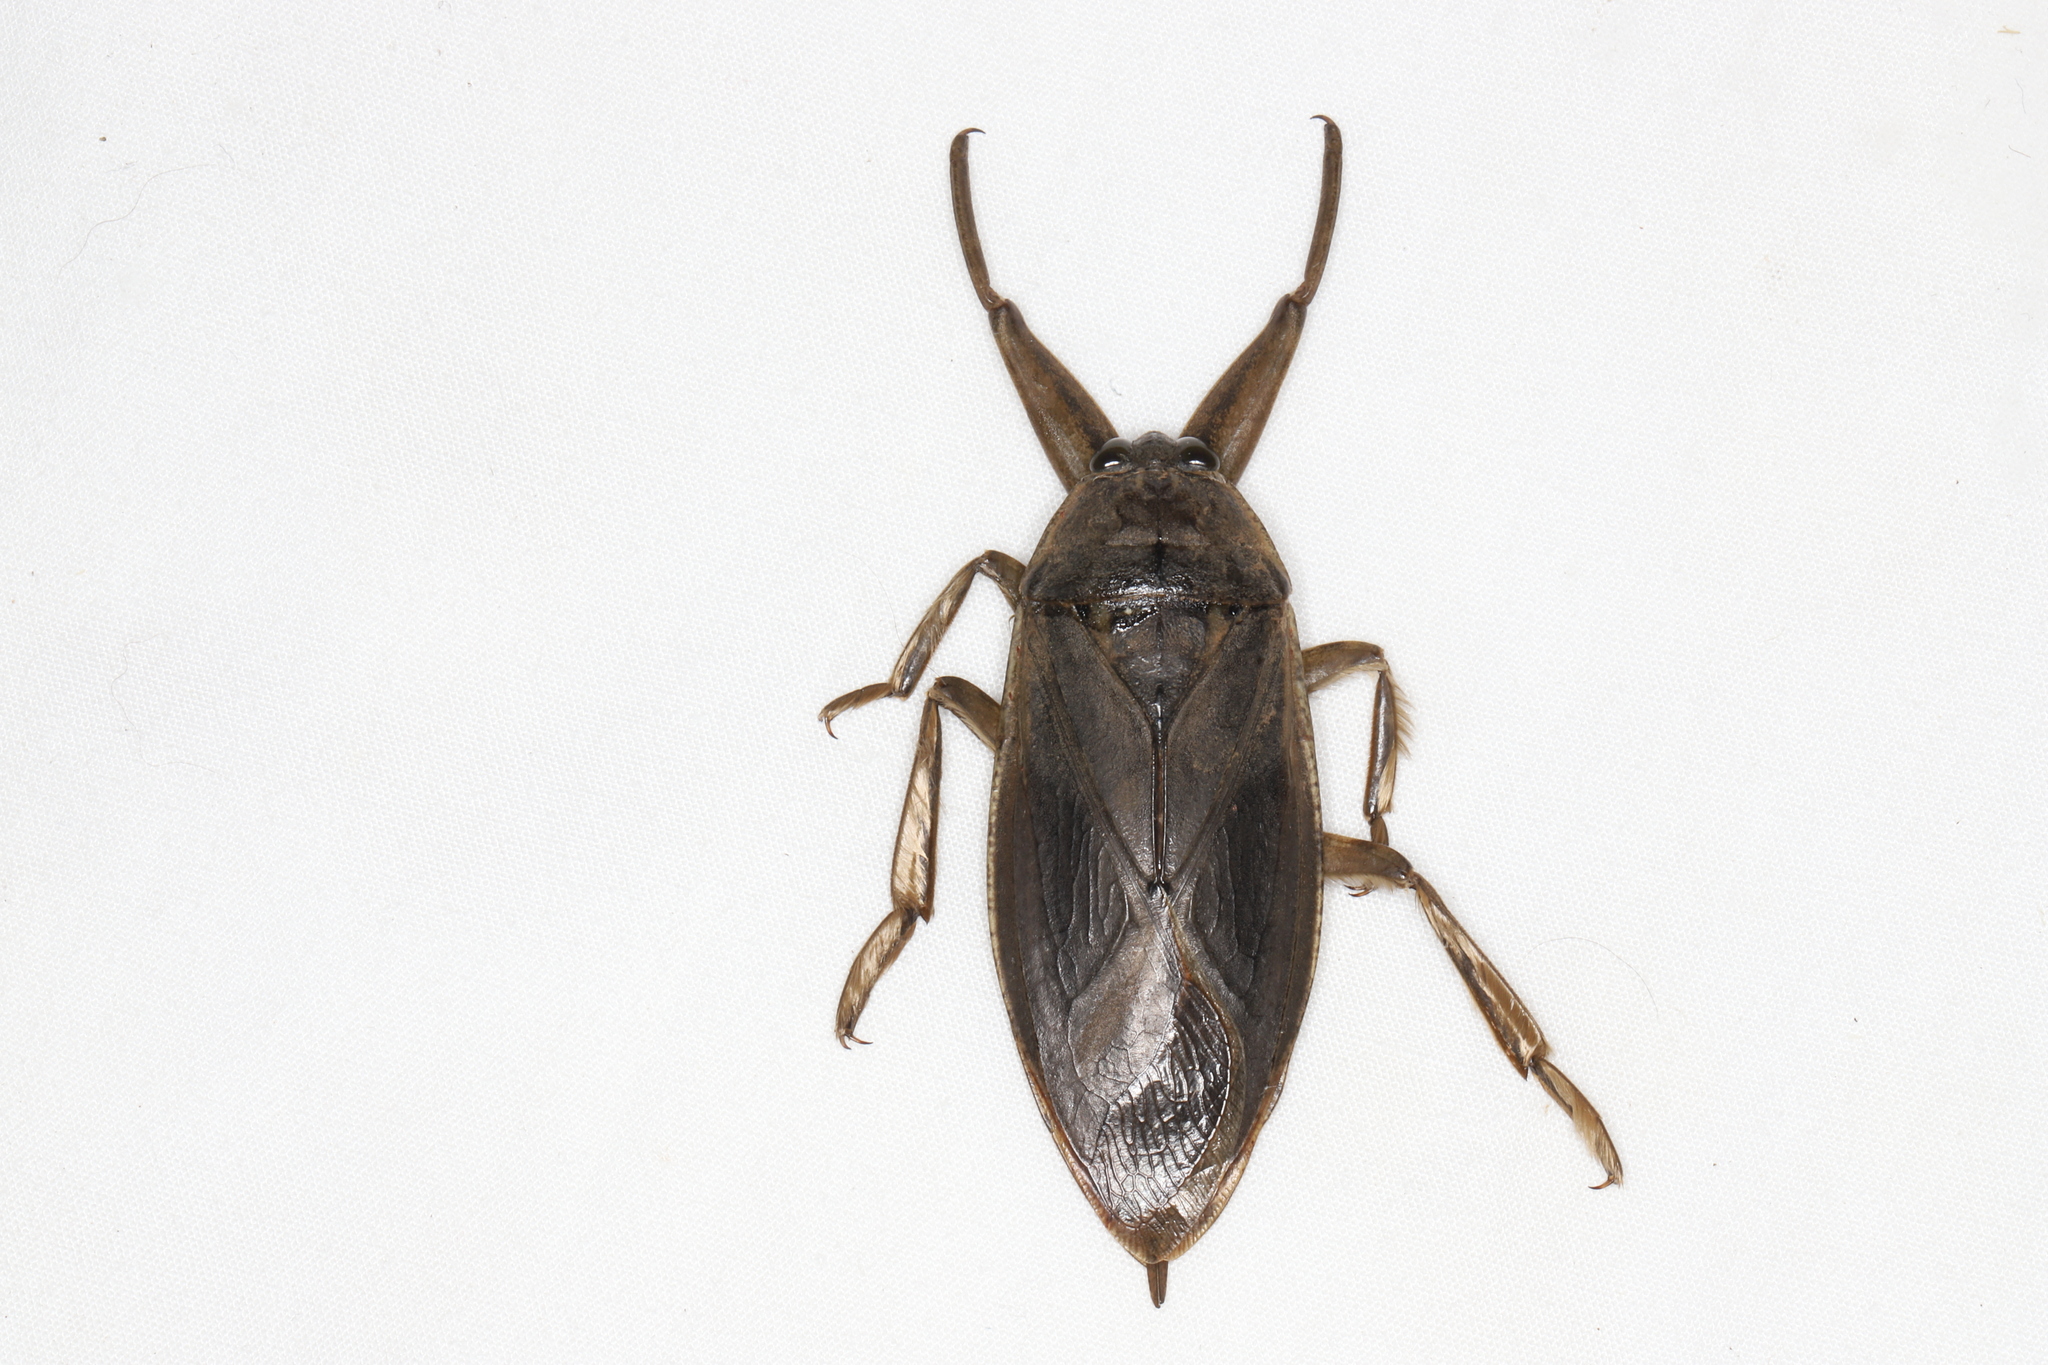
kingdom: Animalia
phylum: Arthropoda
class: Insecta
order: Hemiptera
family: Belostomatidae
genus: Lethocerus
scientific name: Lethocerus americanus
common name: Giant water bug
